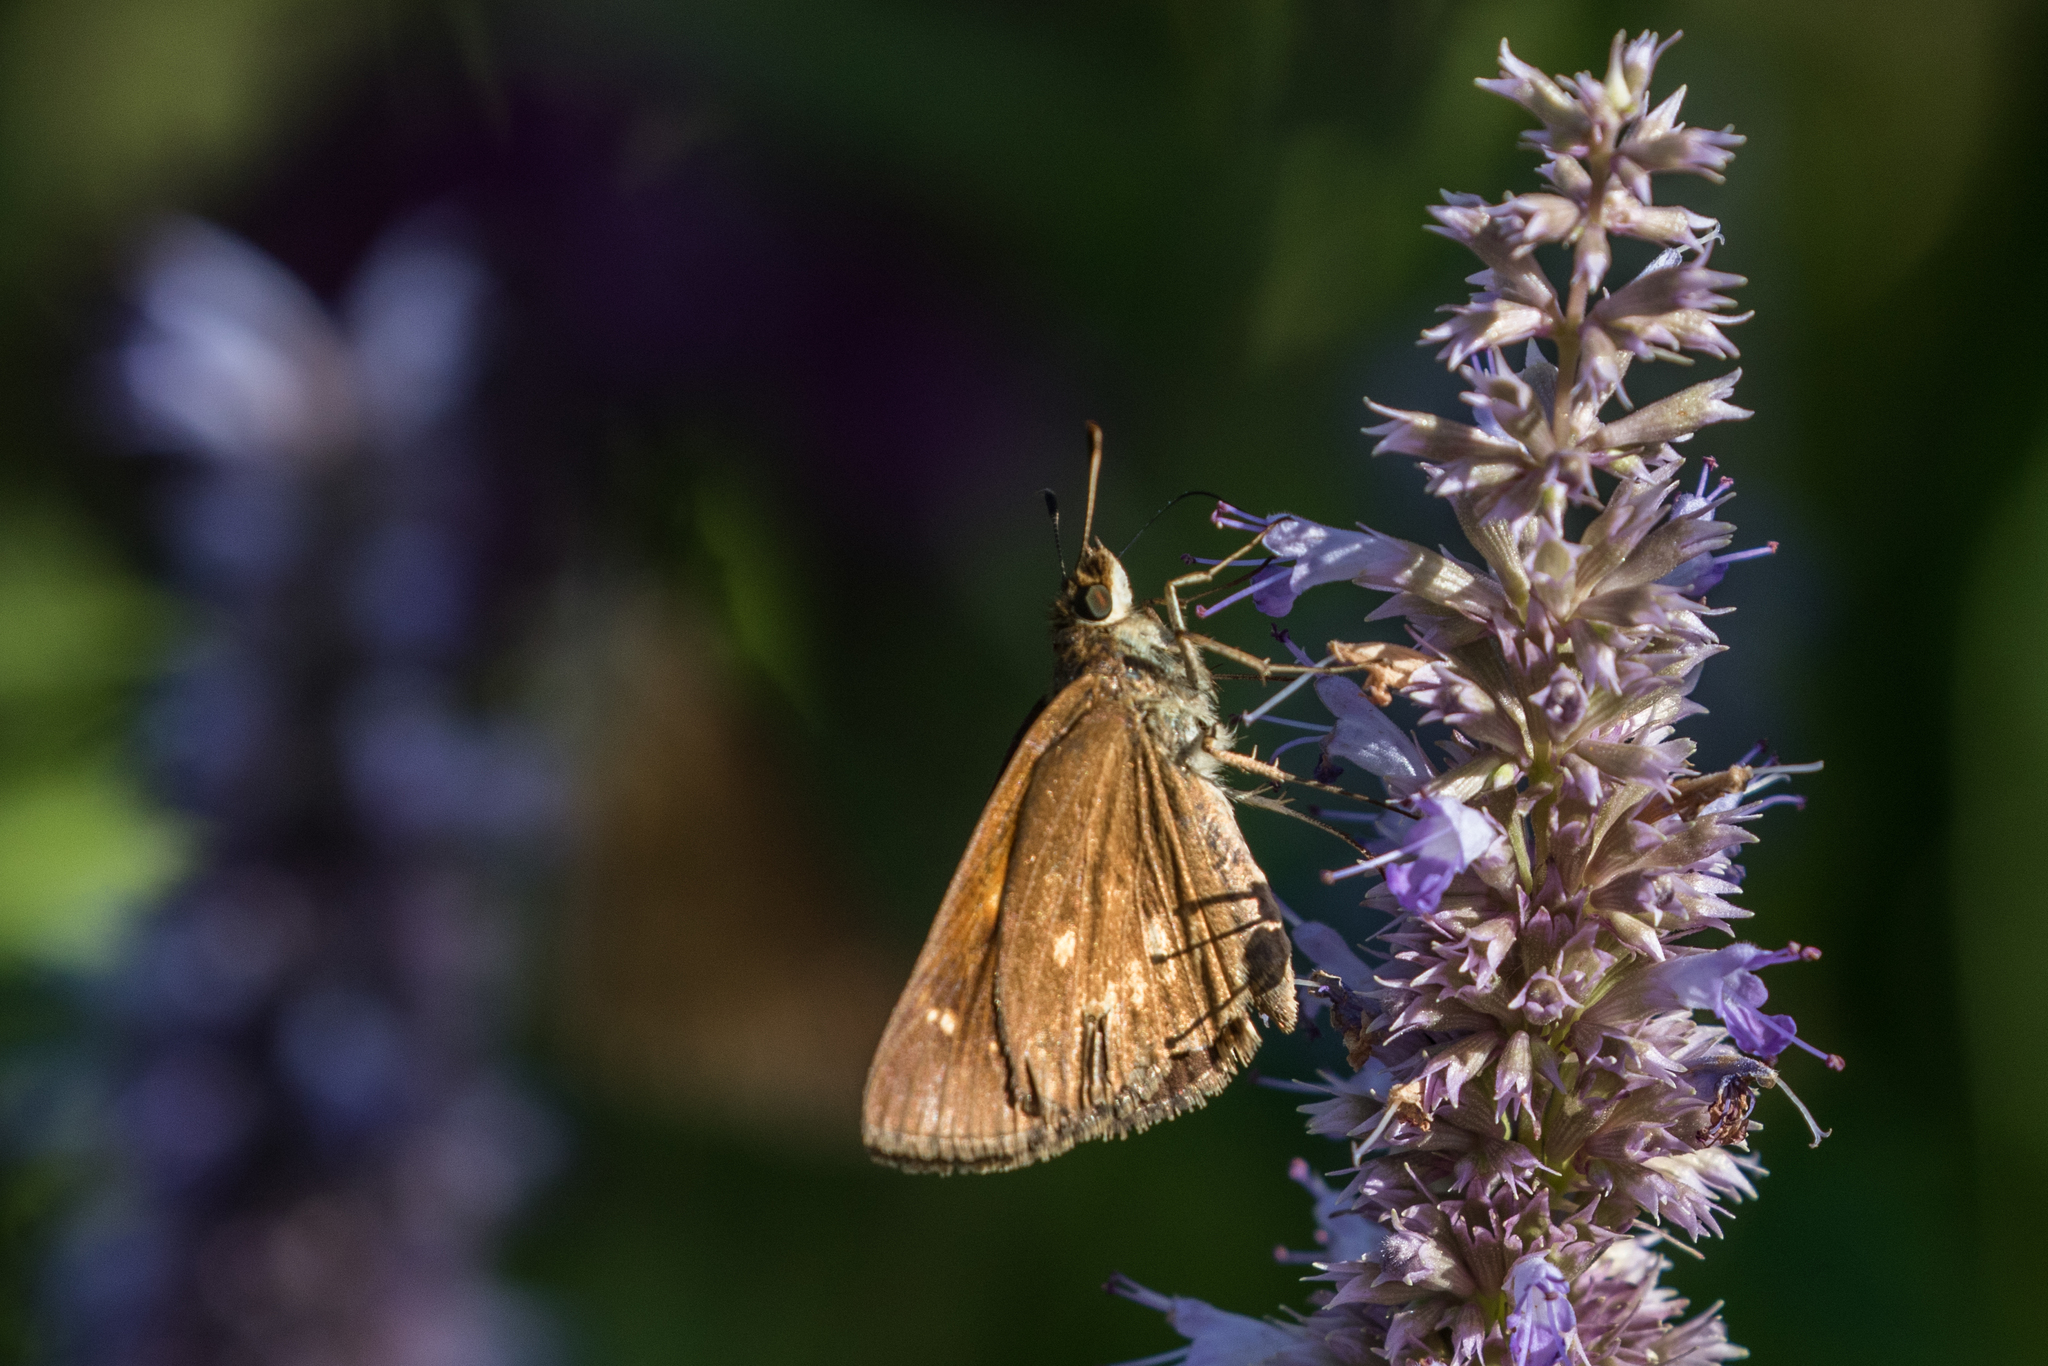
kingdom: Animalia
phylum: Arthropoda
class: Insecta
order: Lepidoptera
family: Hesperiidae
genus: Poanes
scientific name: Poanes viator
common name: Broad-winged skipper
